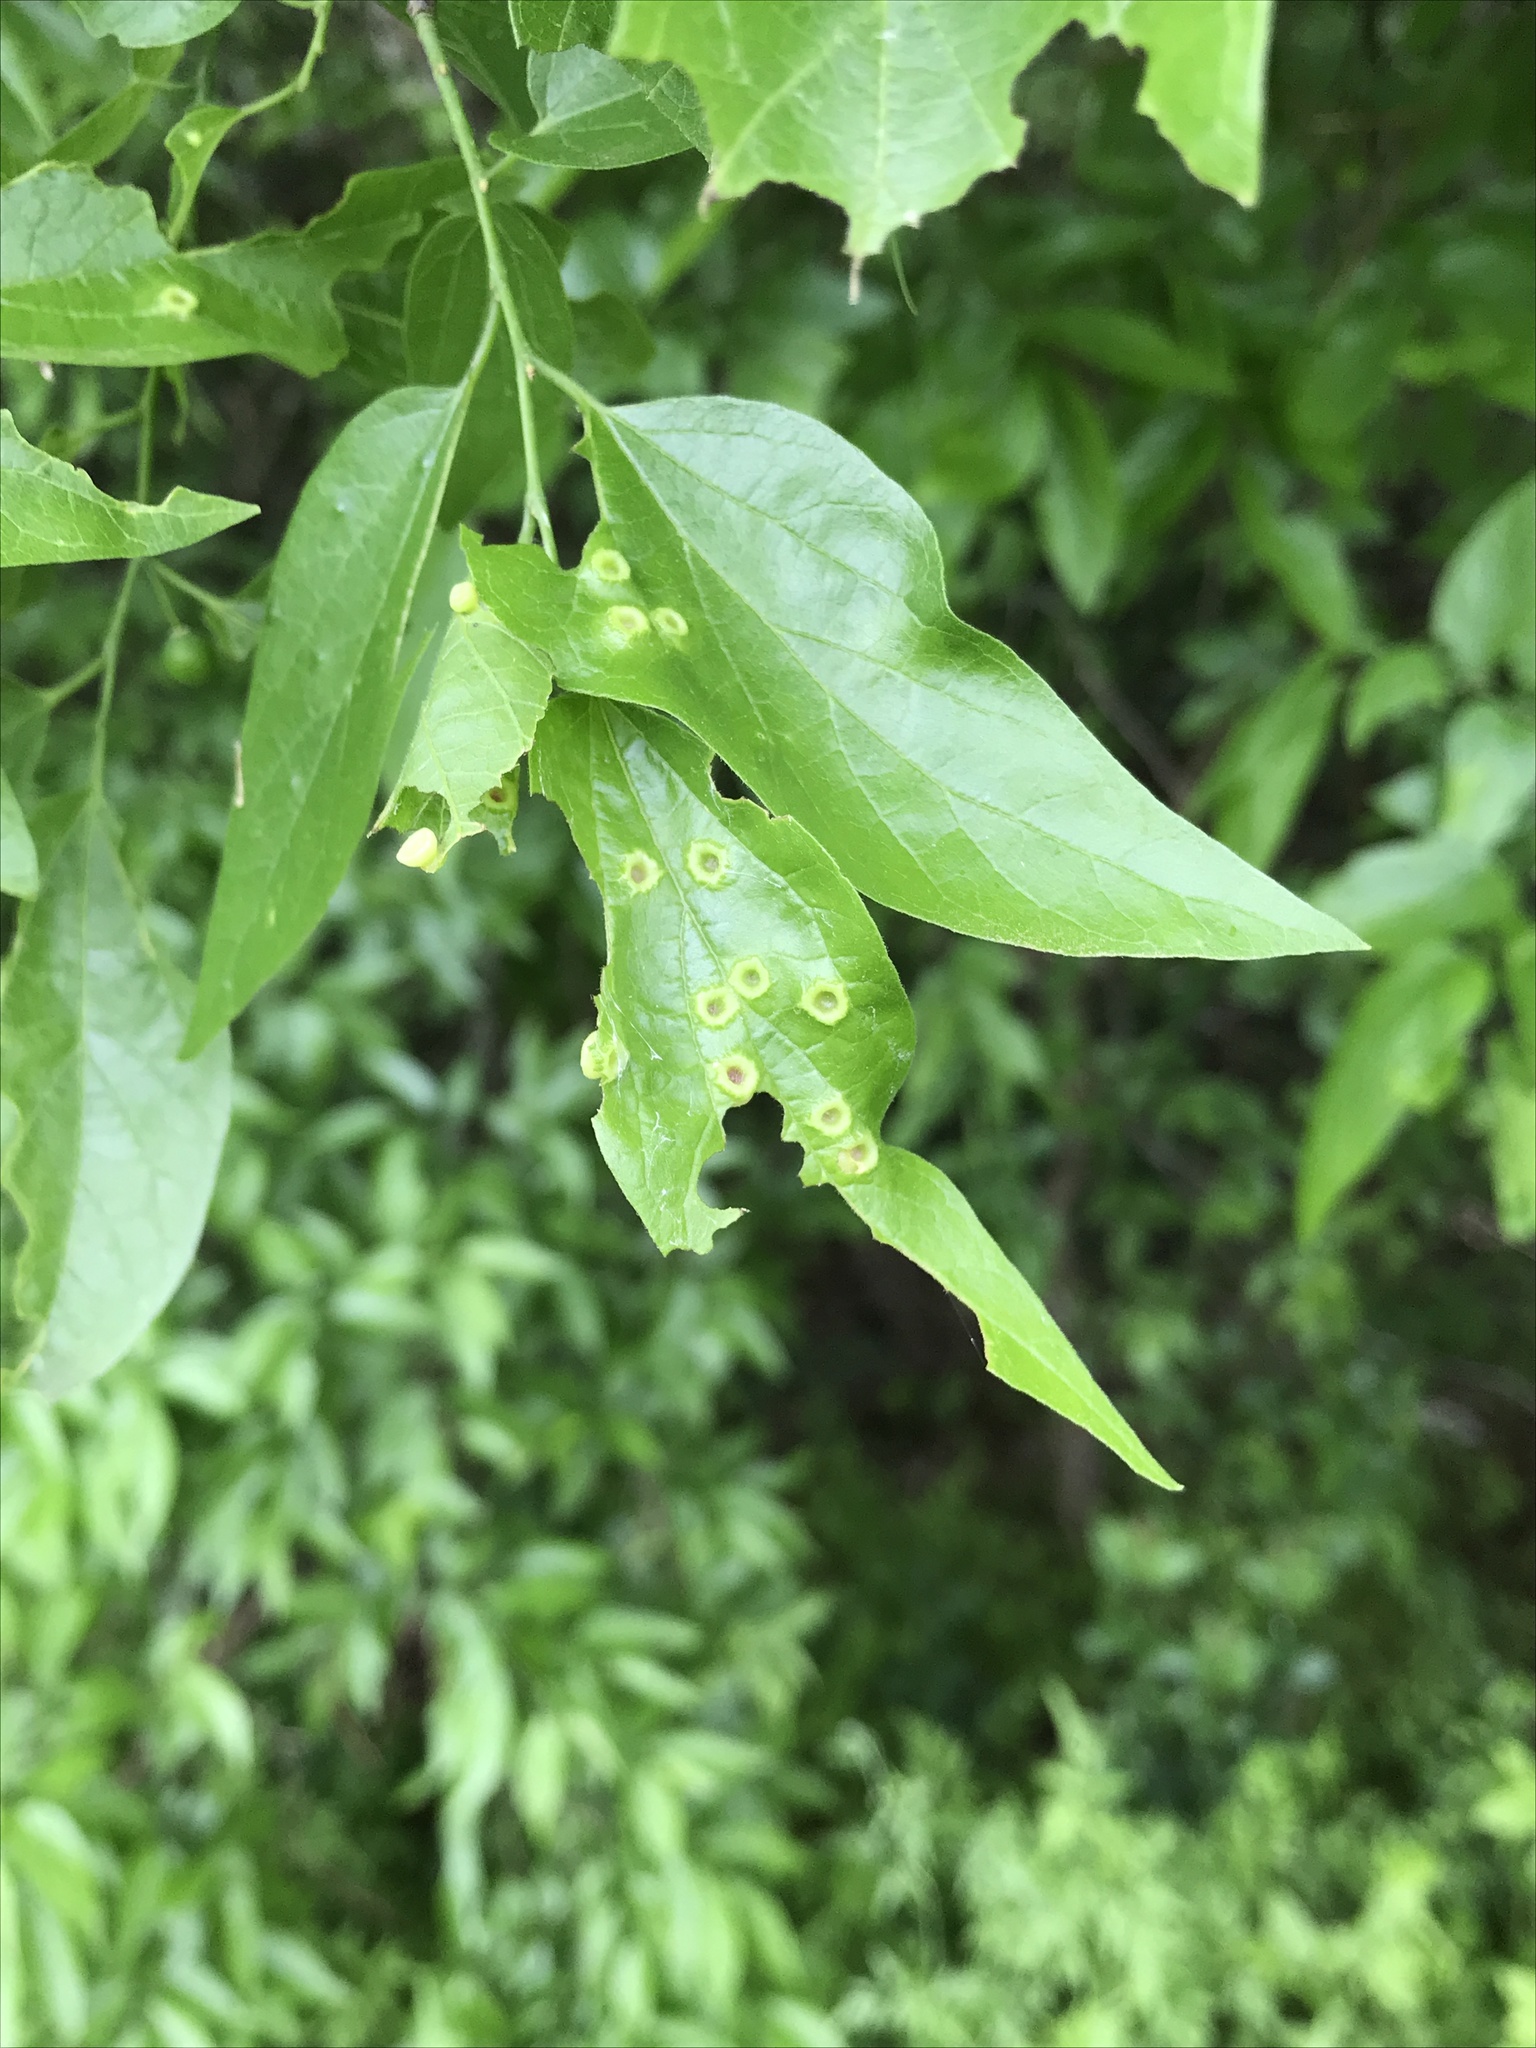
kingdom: Animalia
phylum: Arthropoda
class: Insecta
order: Hemiptera
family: Aphalaridae
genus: Pachypsylla
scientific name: Pachypsylla celtidismamma
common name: Hackberry nipplegall psyllid
